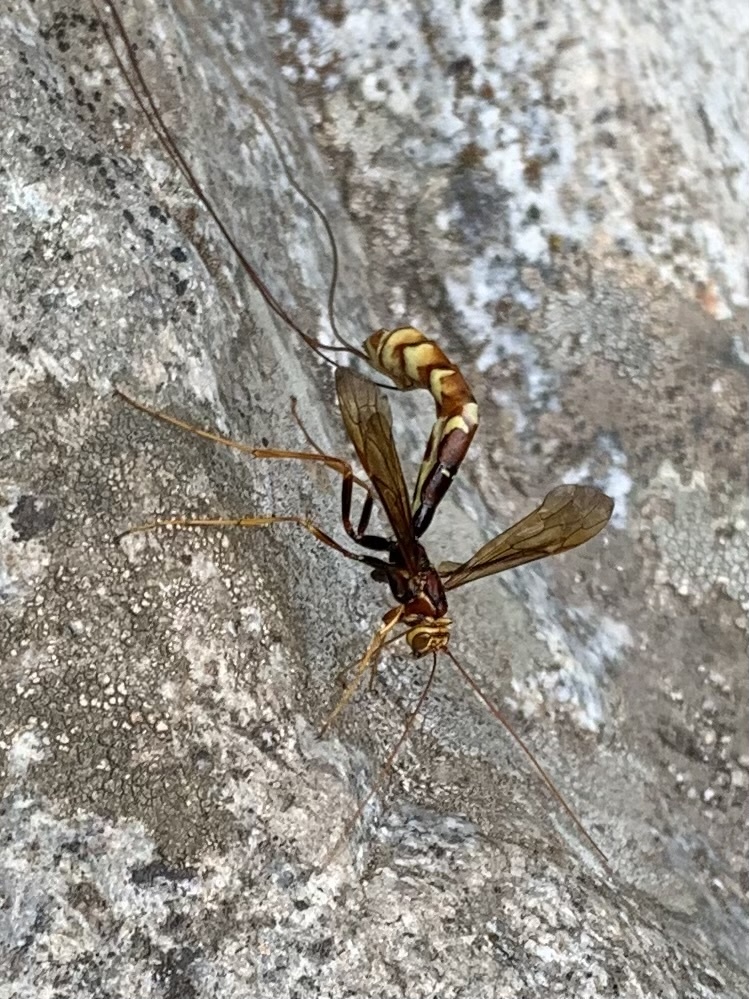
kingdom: Animalia
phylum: Arthropoda
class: Insecta
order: Hymenoptera
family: Ichneumonidae
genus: Megarhyssa
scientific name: Megarhyssa macrura
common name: Long-tailed giant ichneumonid wasp
